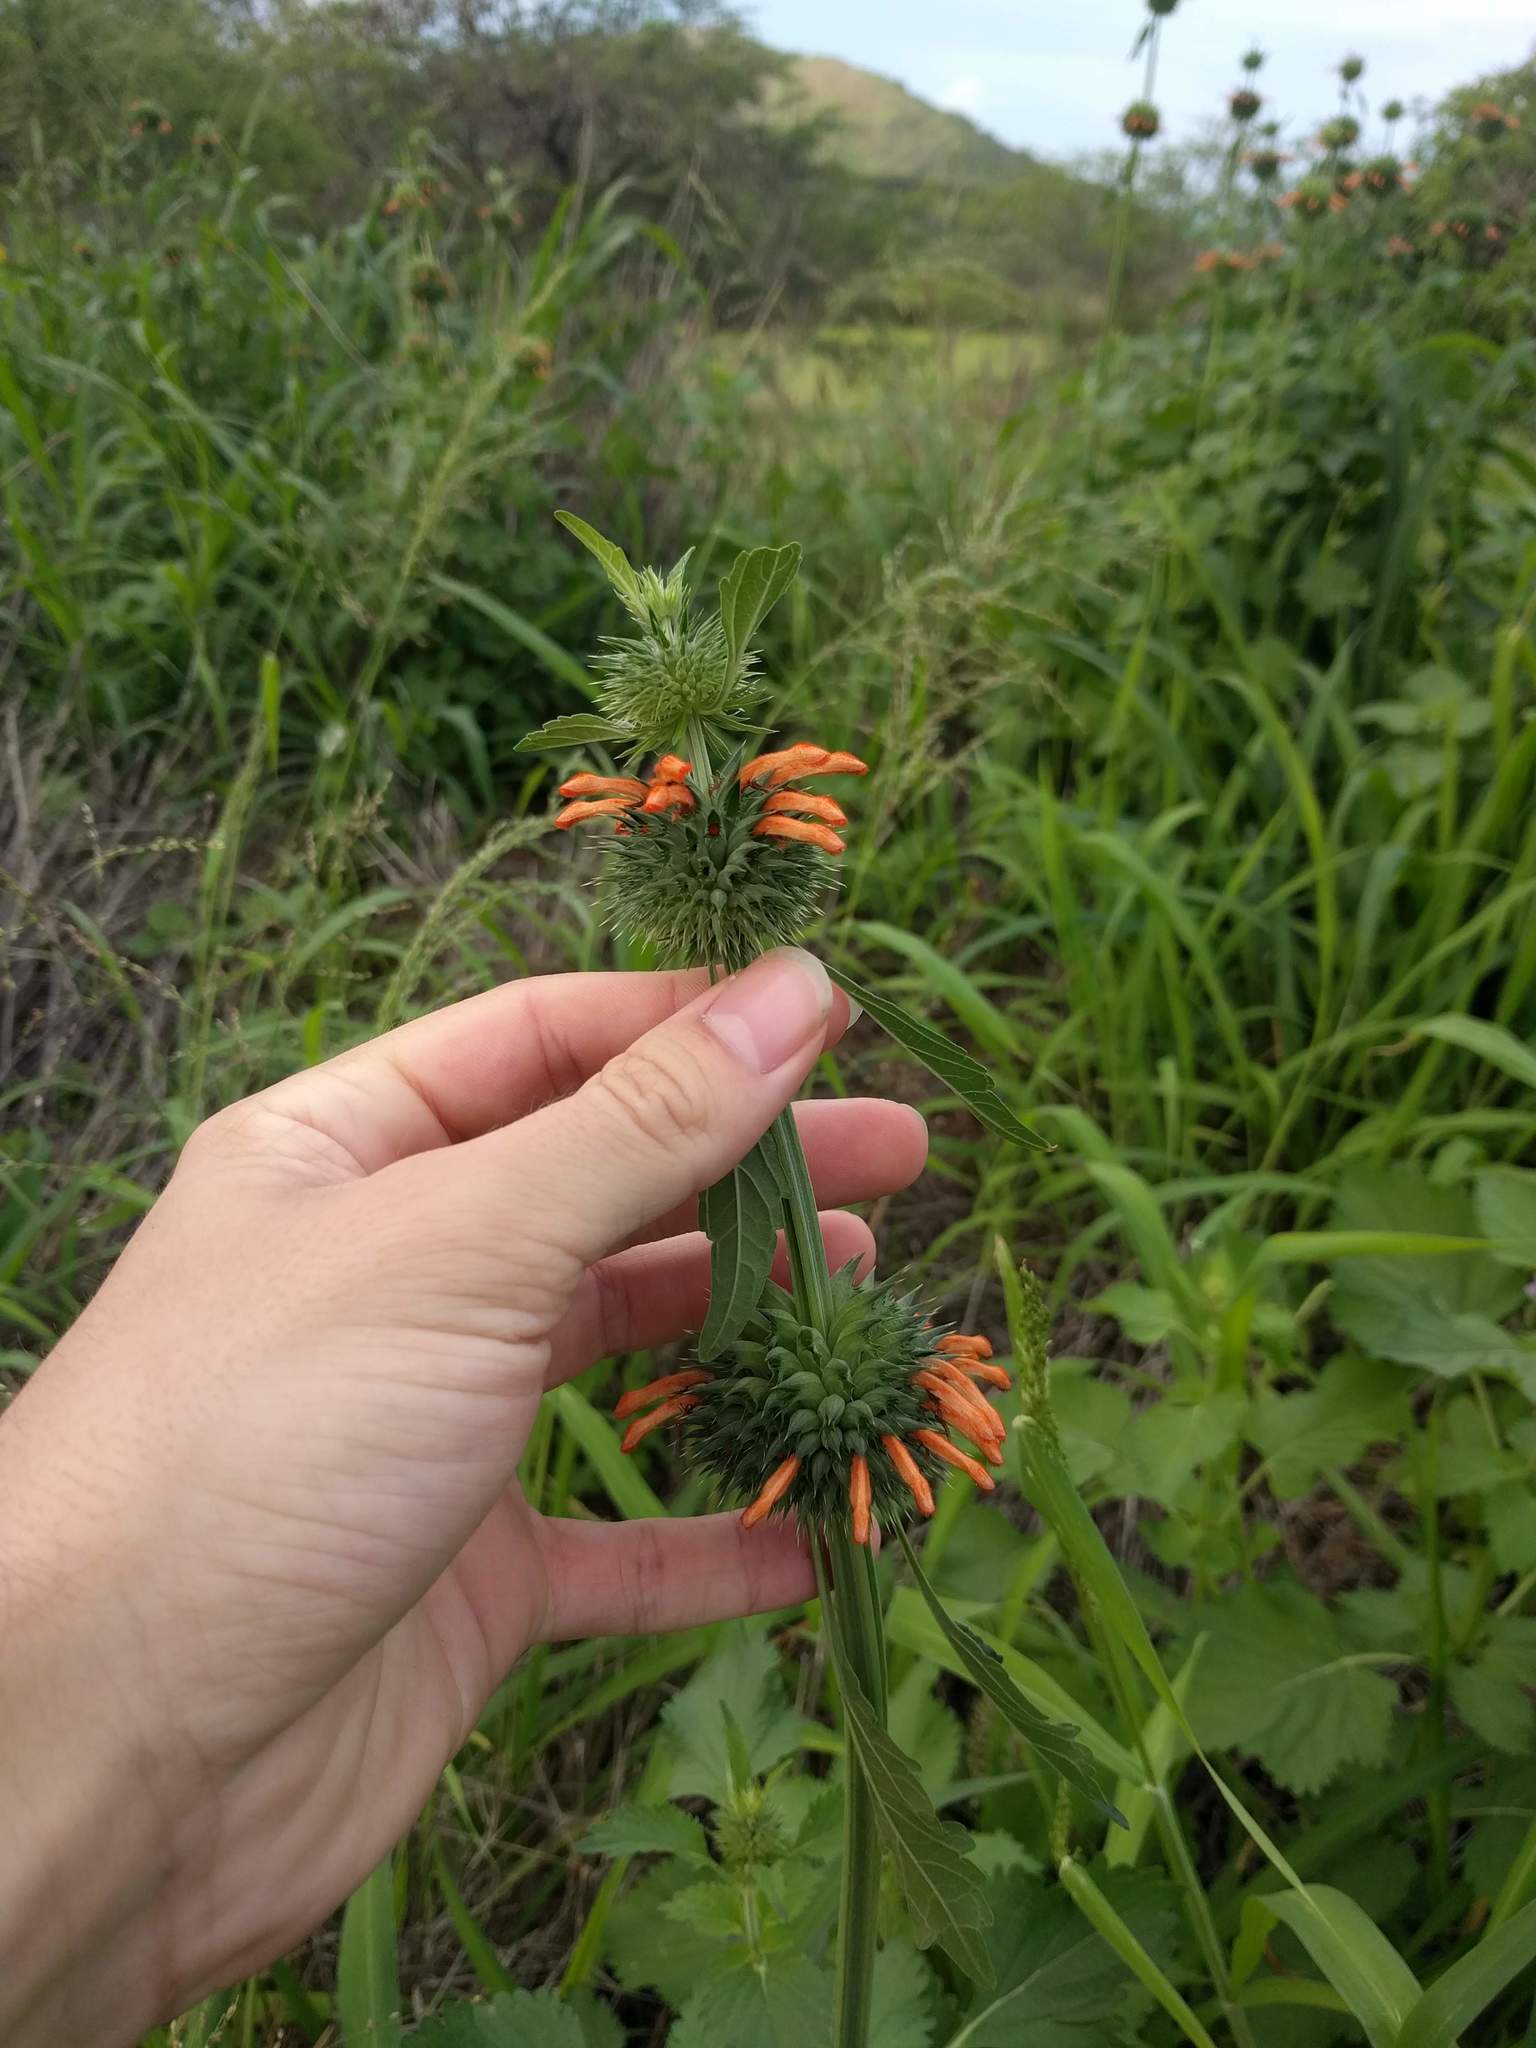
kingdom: Plantae
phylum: Tracheophyta
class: Magnoliopsida
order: Lamiales
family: Lamiaceae
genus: Leonotis
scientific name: Leonotis nepetifolia
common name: Christmas candlestick
